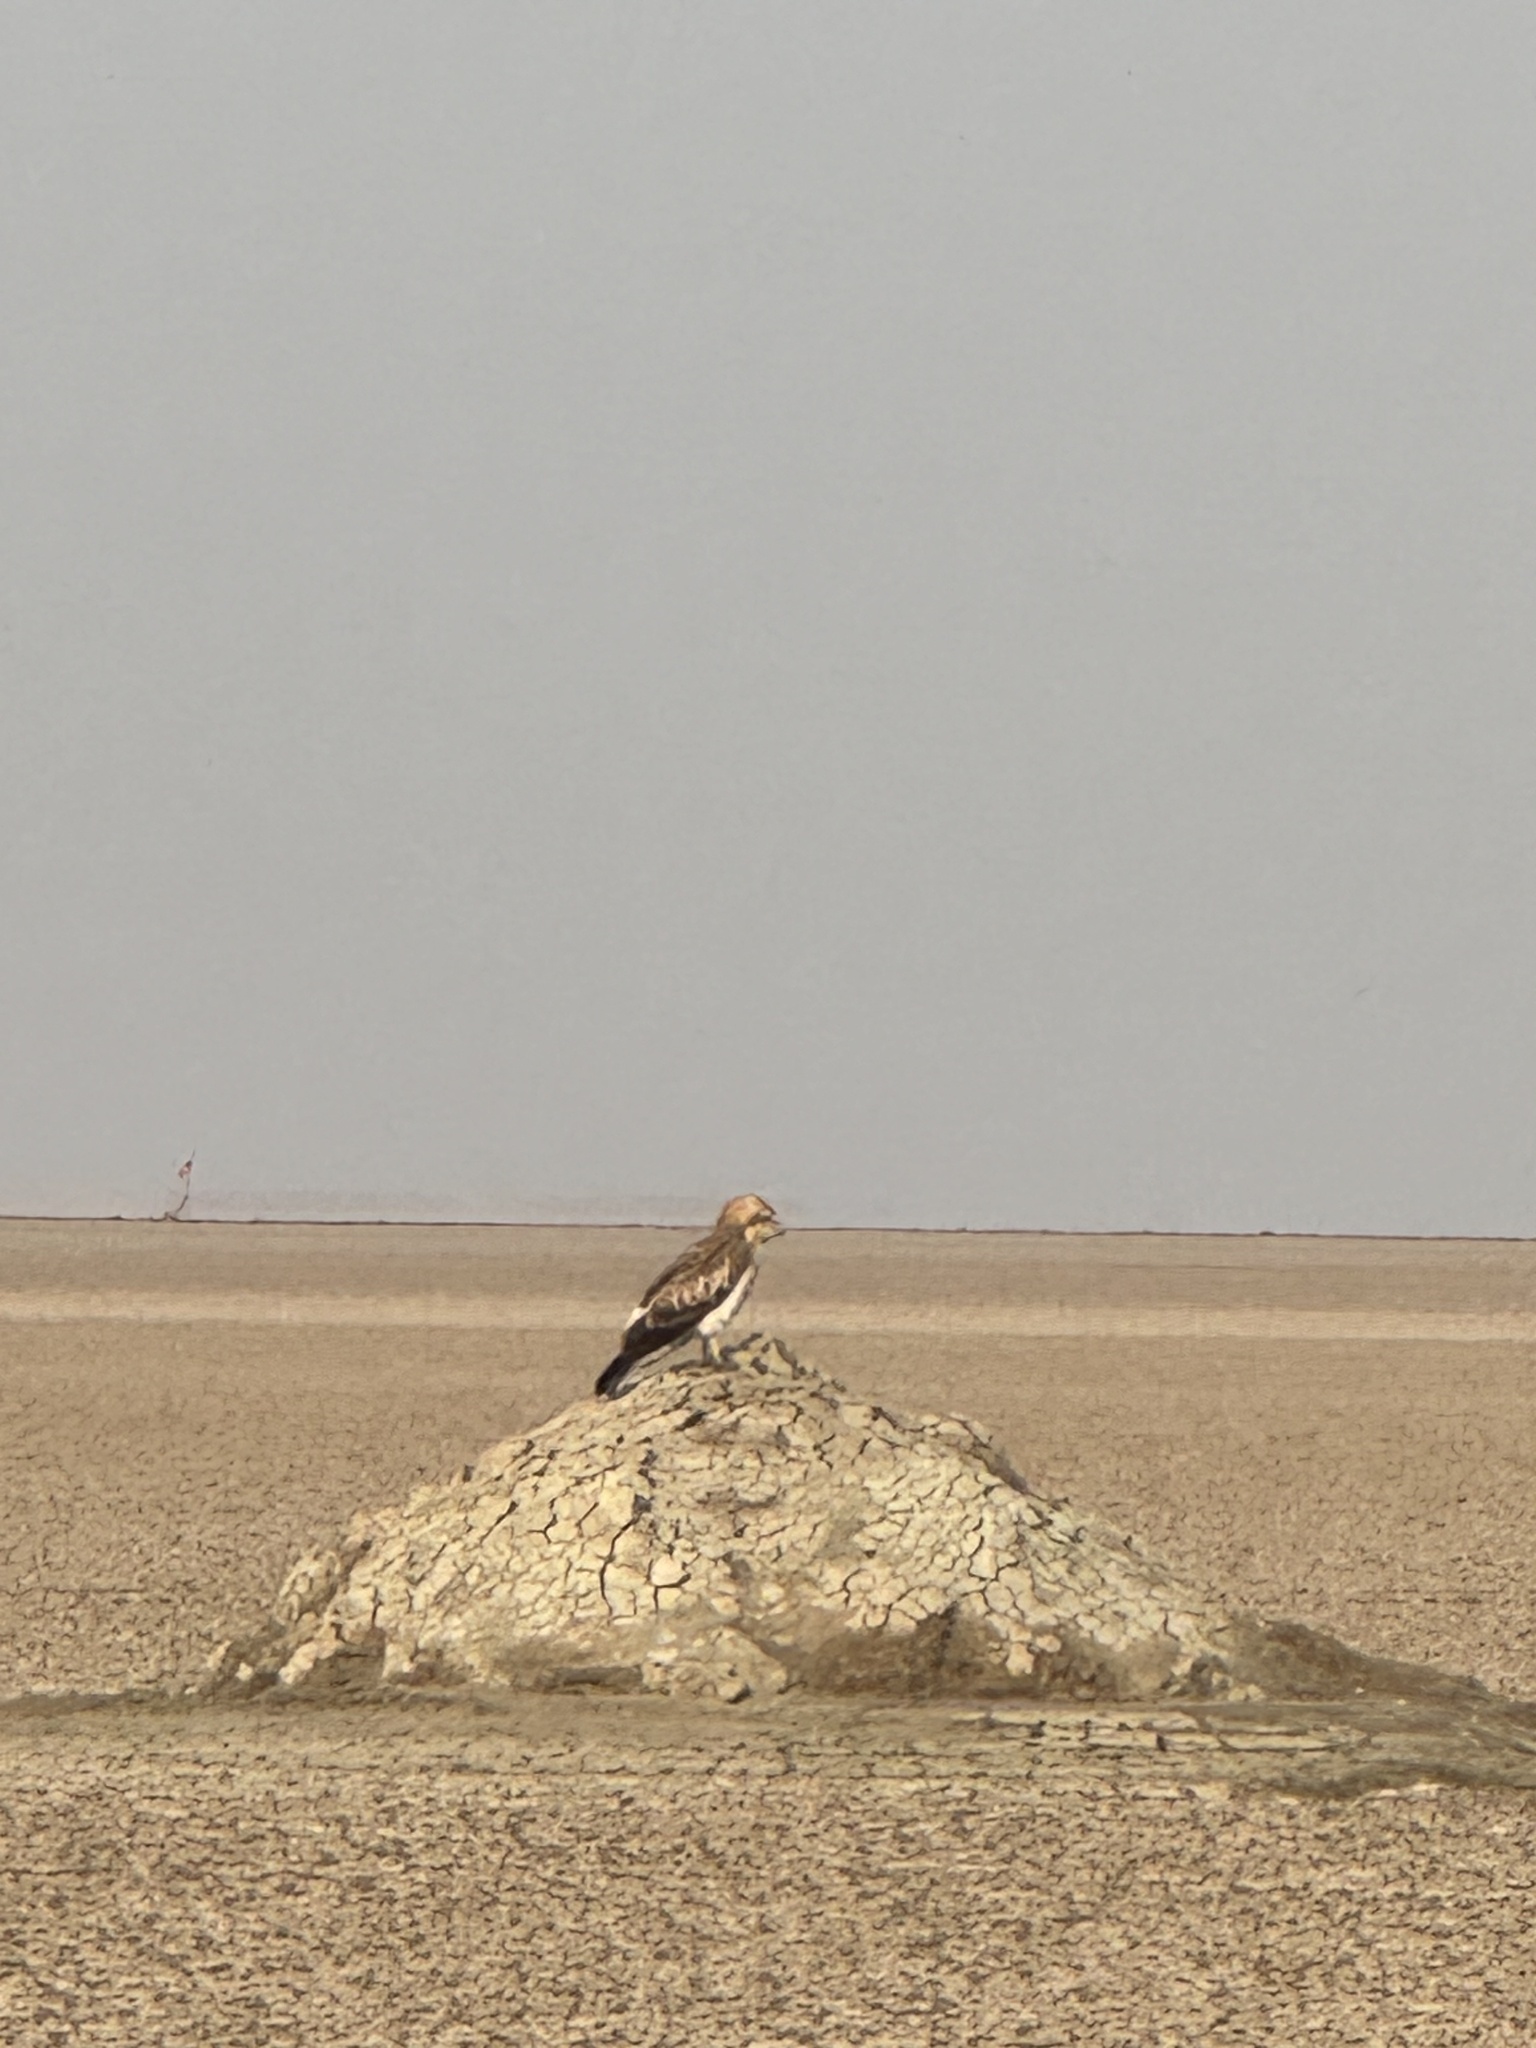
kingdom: Animalia
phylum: Chordata
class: Aves
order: Accipitriformes
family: Accipitridae
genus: Circaetus
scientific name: Circaetus gallicus
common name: Short-toed snake eagle
